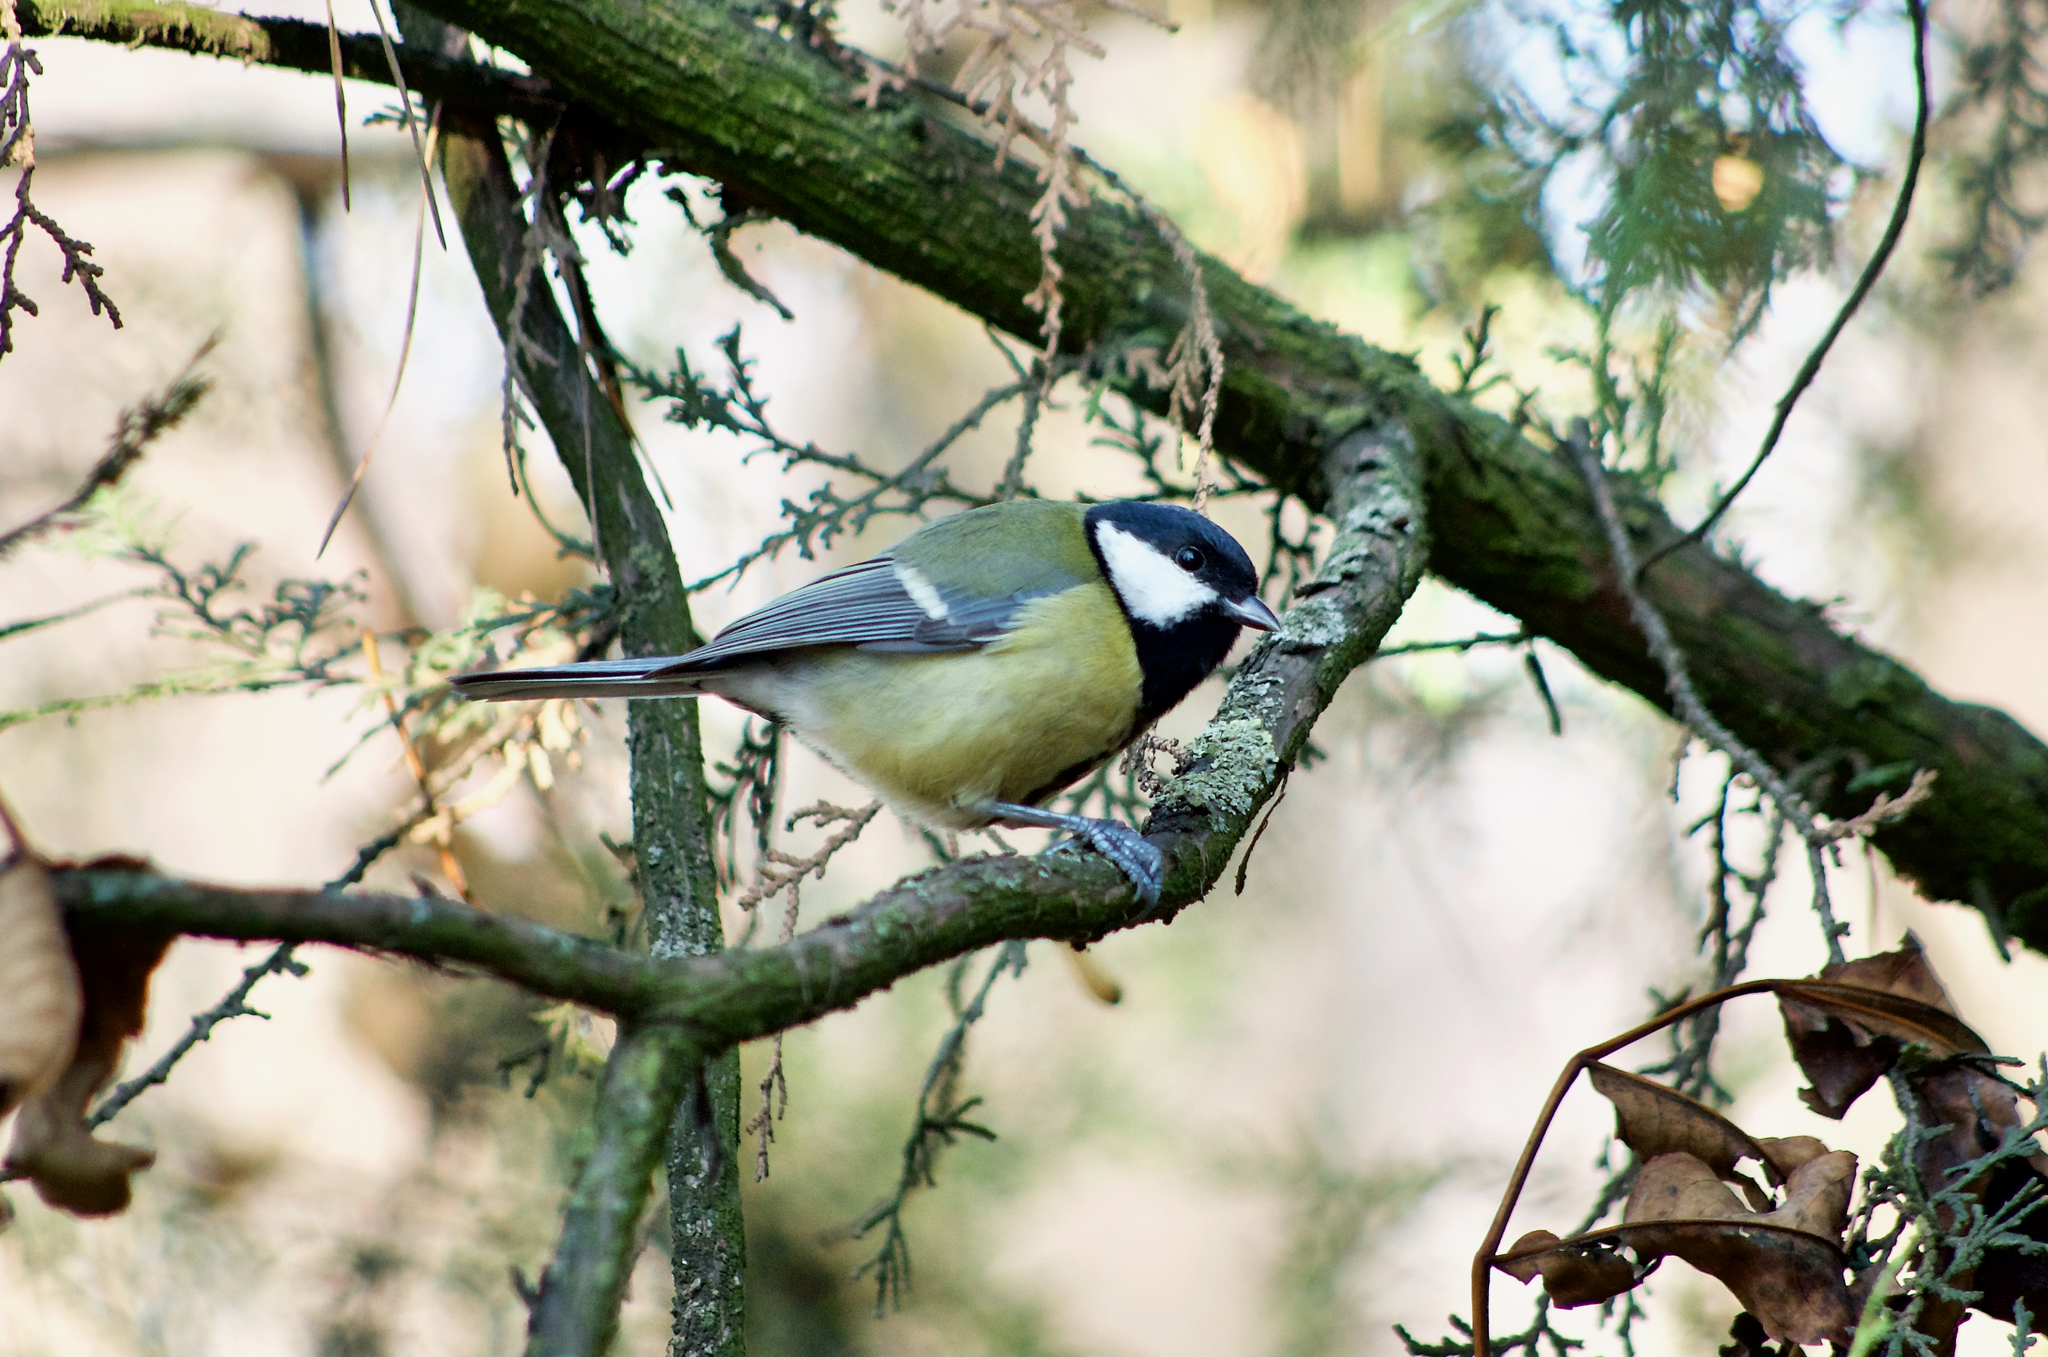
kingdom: Animalia
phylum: Chordata
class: Aves
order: Passeriformes
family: Paridae
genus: Parus
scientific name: Parus major
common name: Great tit
